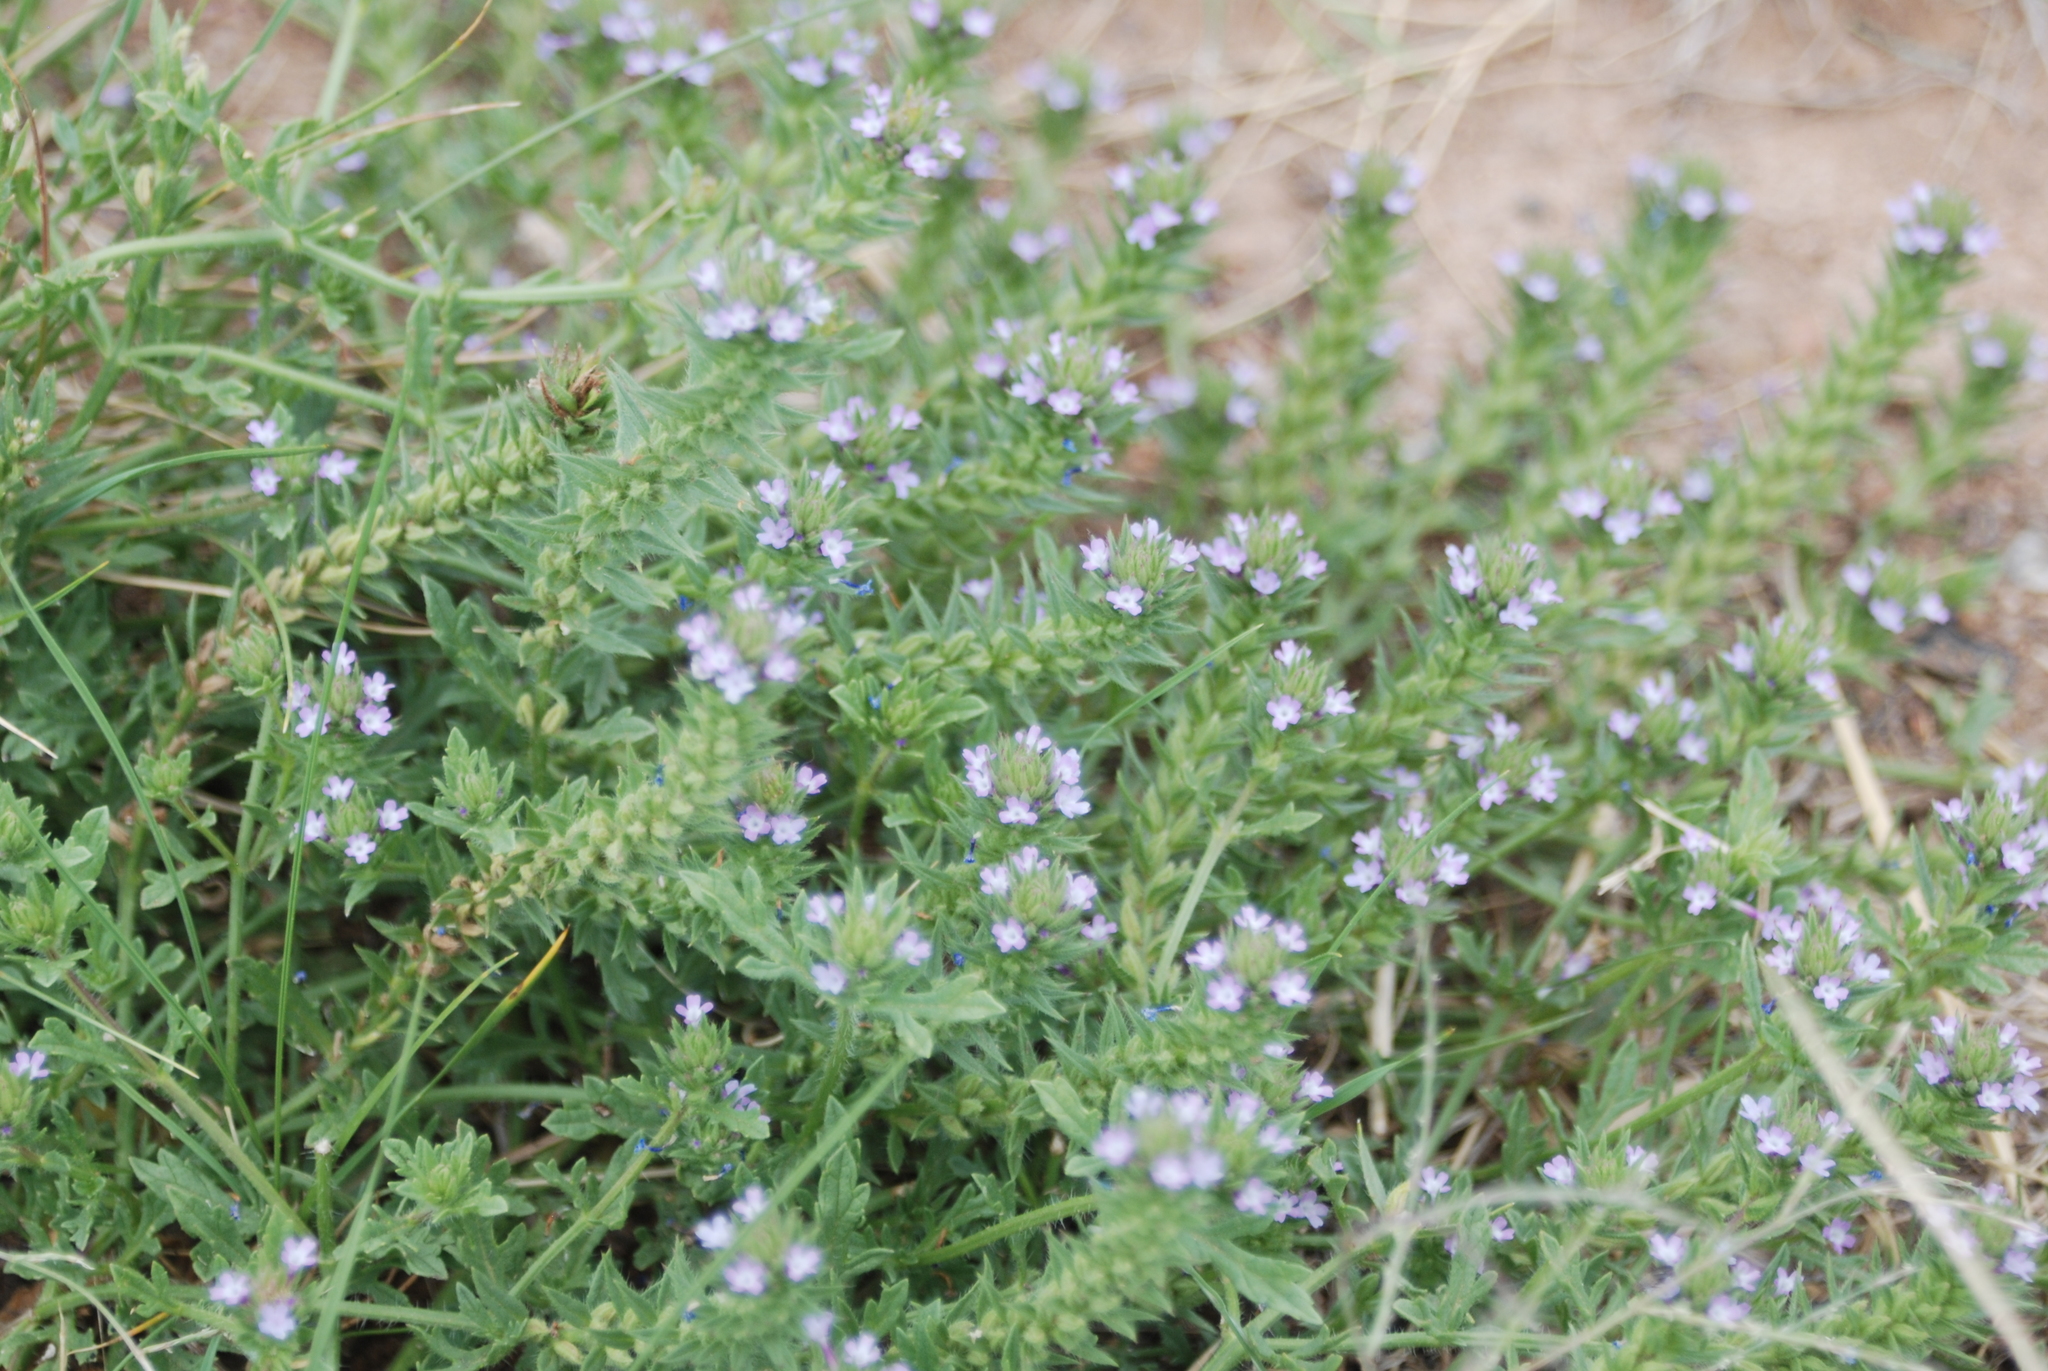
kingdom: Plantae
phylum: Tracheophyta
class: Magnoliopsida
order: Lamiales
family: Verbenaceae
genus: Verbena
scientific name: Verbena bracteata
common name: Bracted vervain
